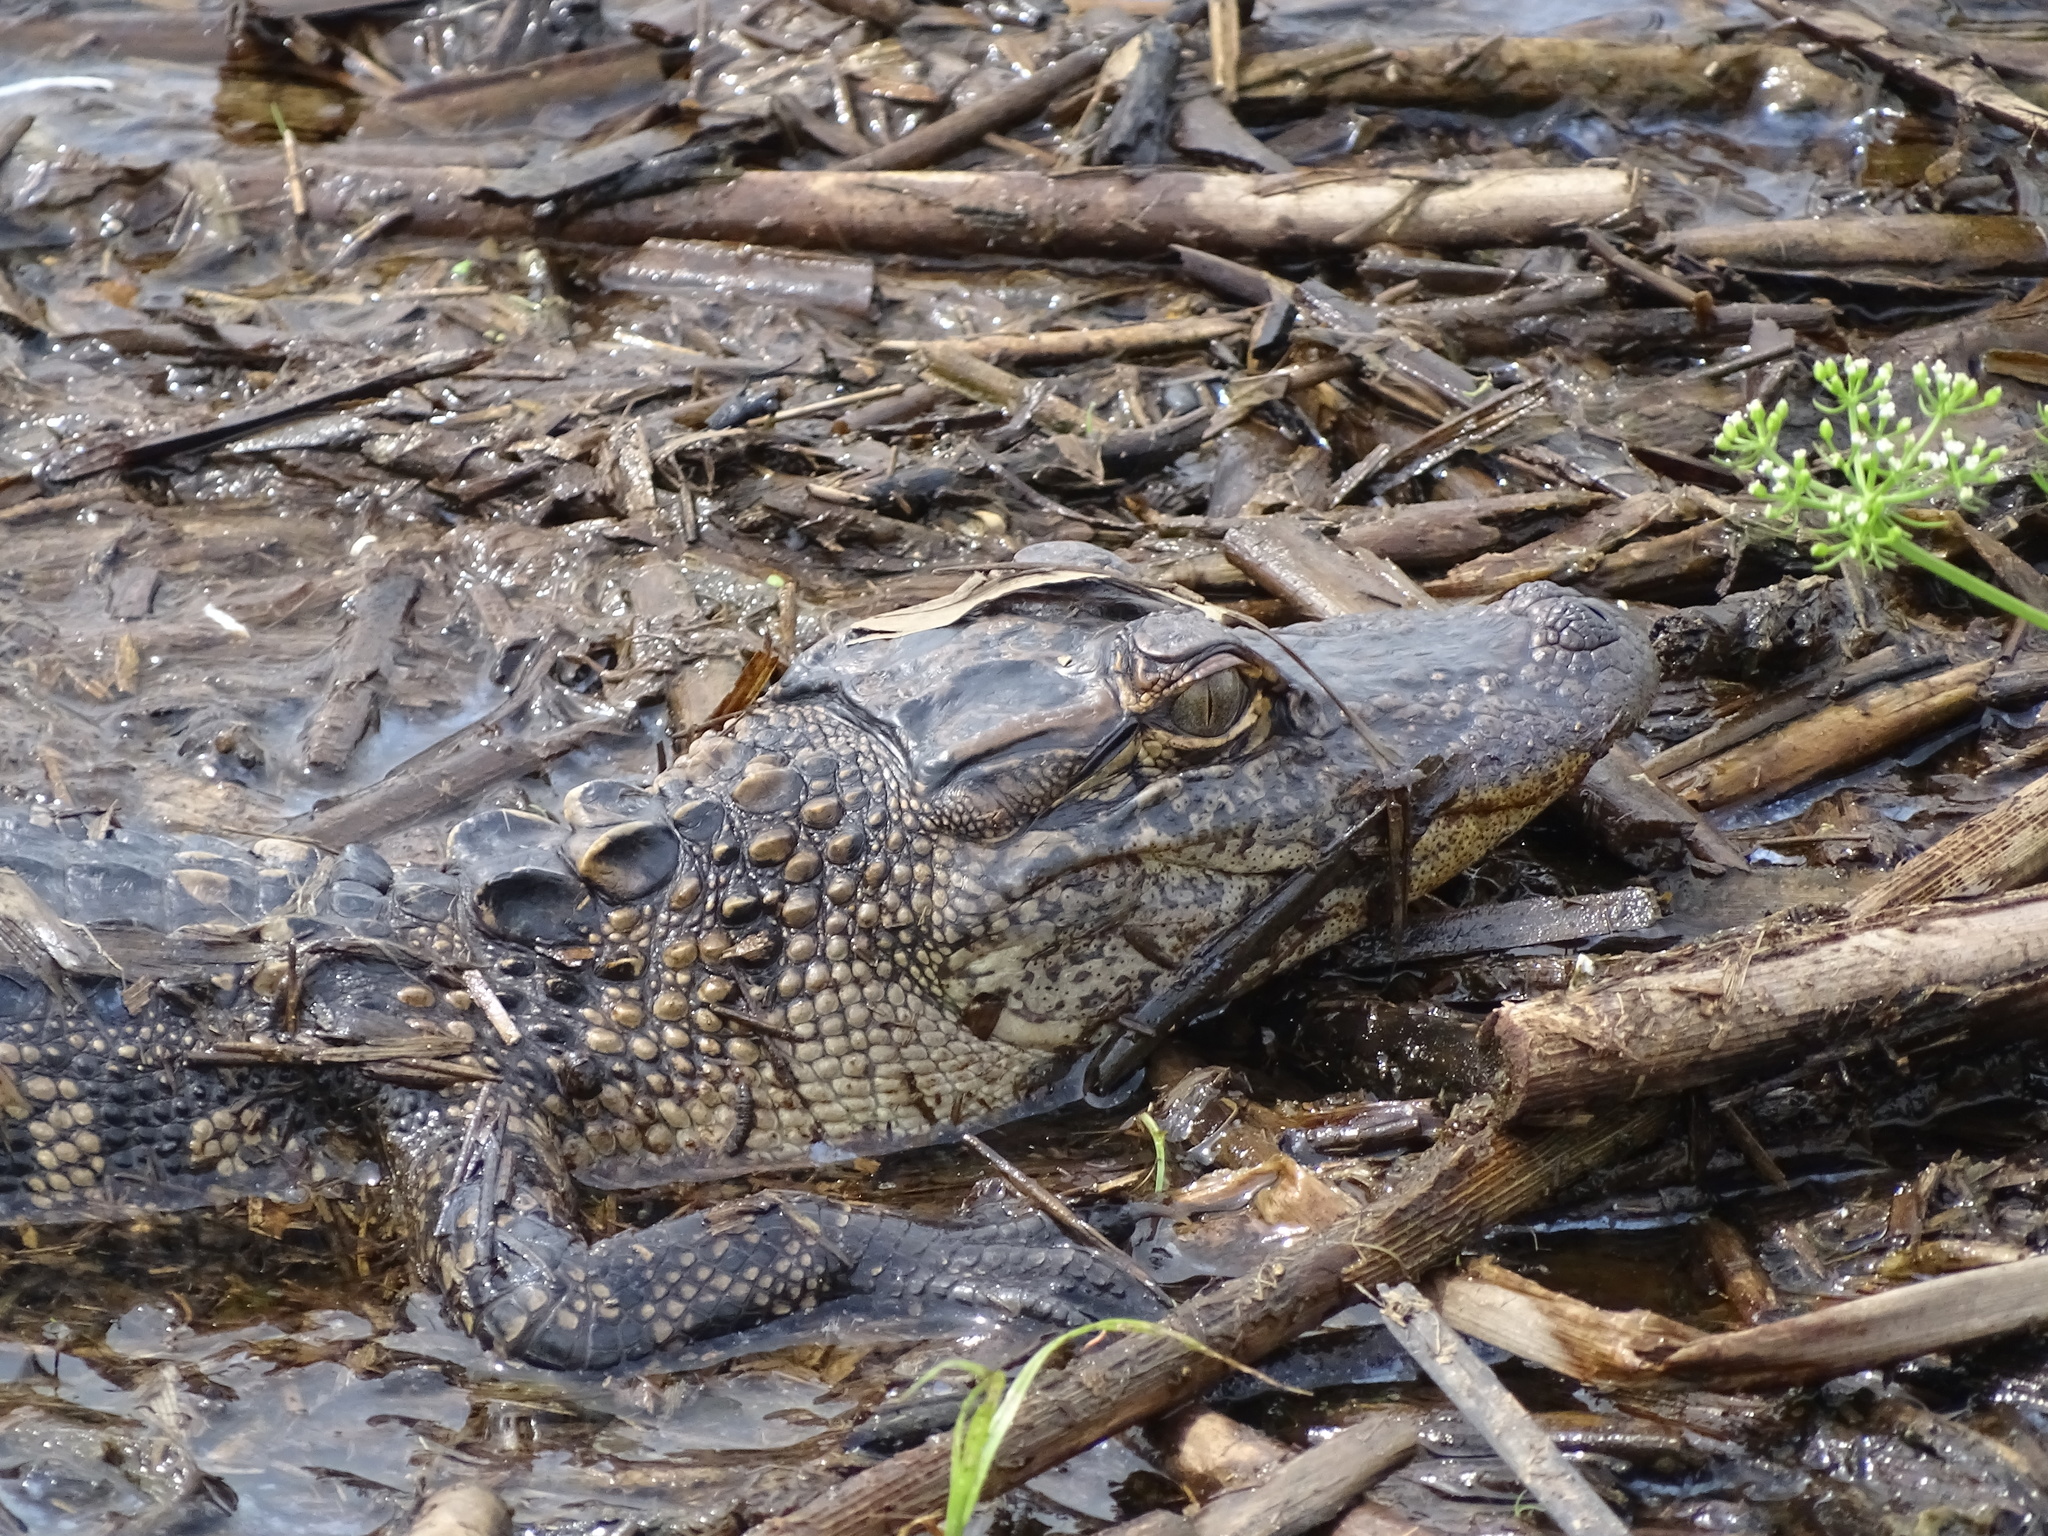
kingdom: Animalia
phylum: Chordata
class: Crocodylia
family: Alligatoridae
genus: Alligator
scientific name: Alligator mississippiensis
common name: American alligator
